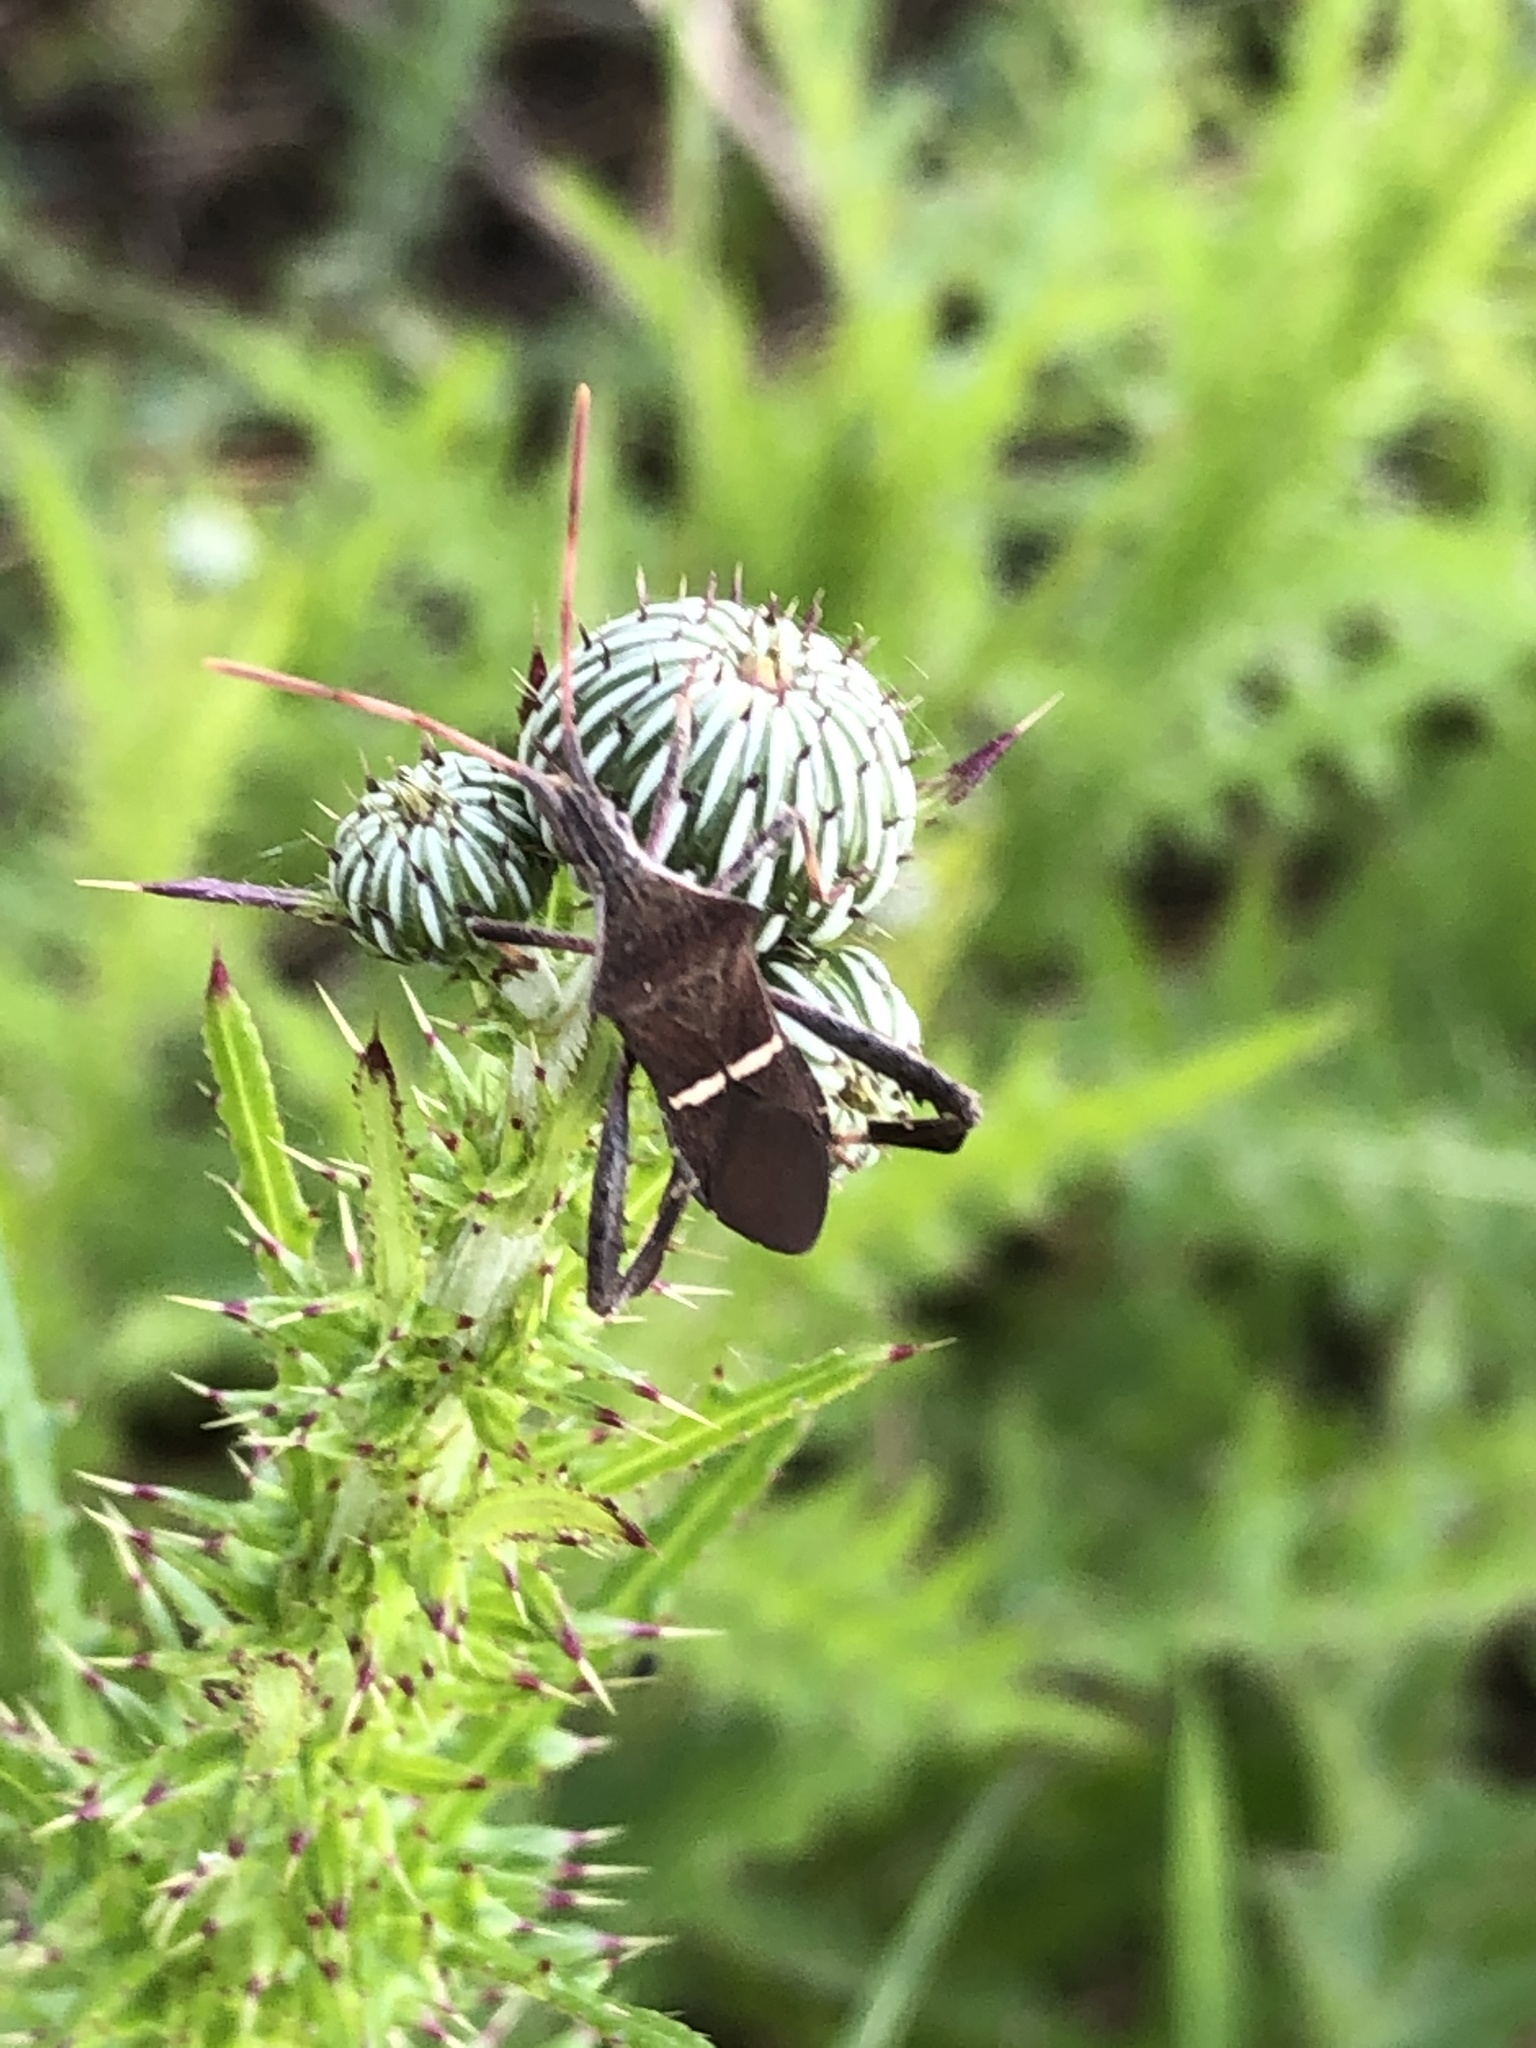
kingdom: Animalia
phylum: Arthropoda
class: Insecta
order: Hemiptera
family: Coreidae
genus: Leptoglossus
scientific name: Leptoglossus phyllopus
